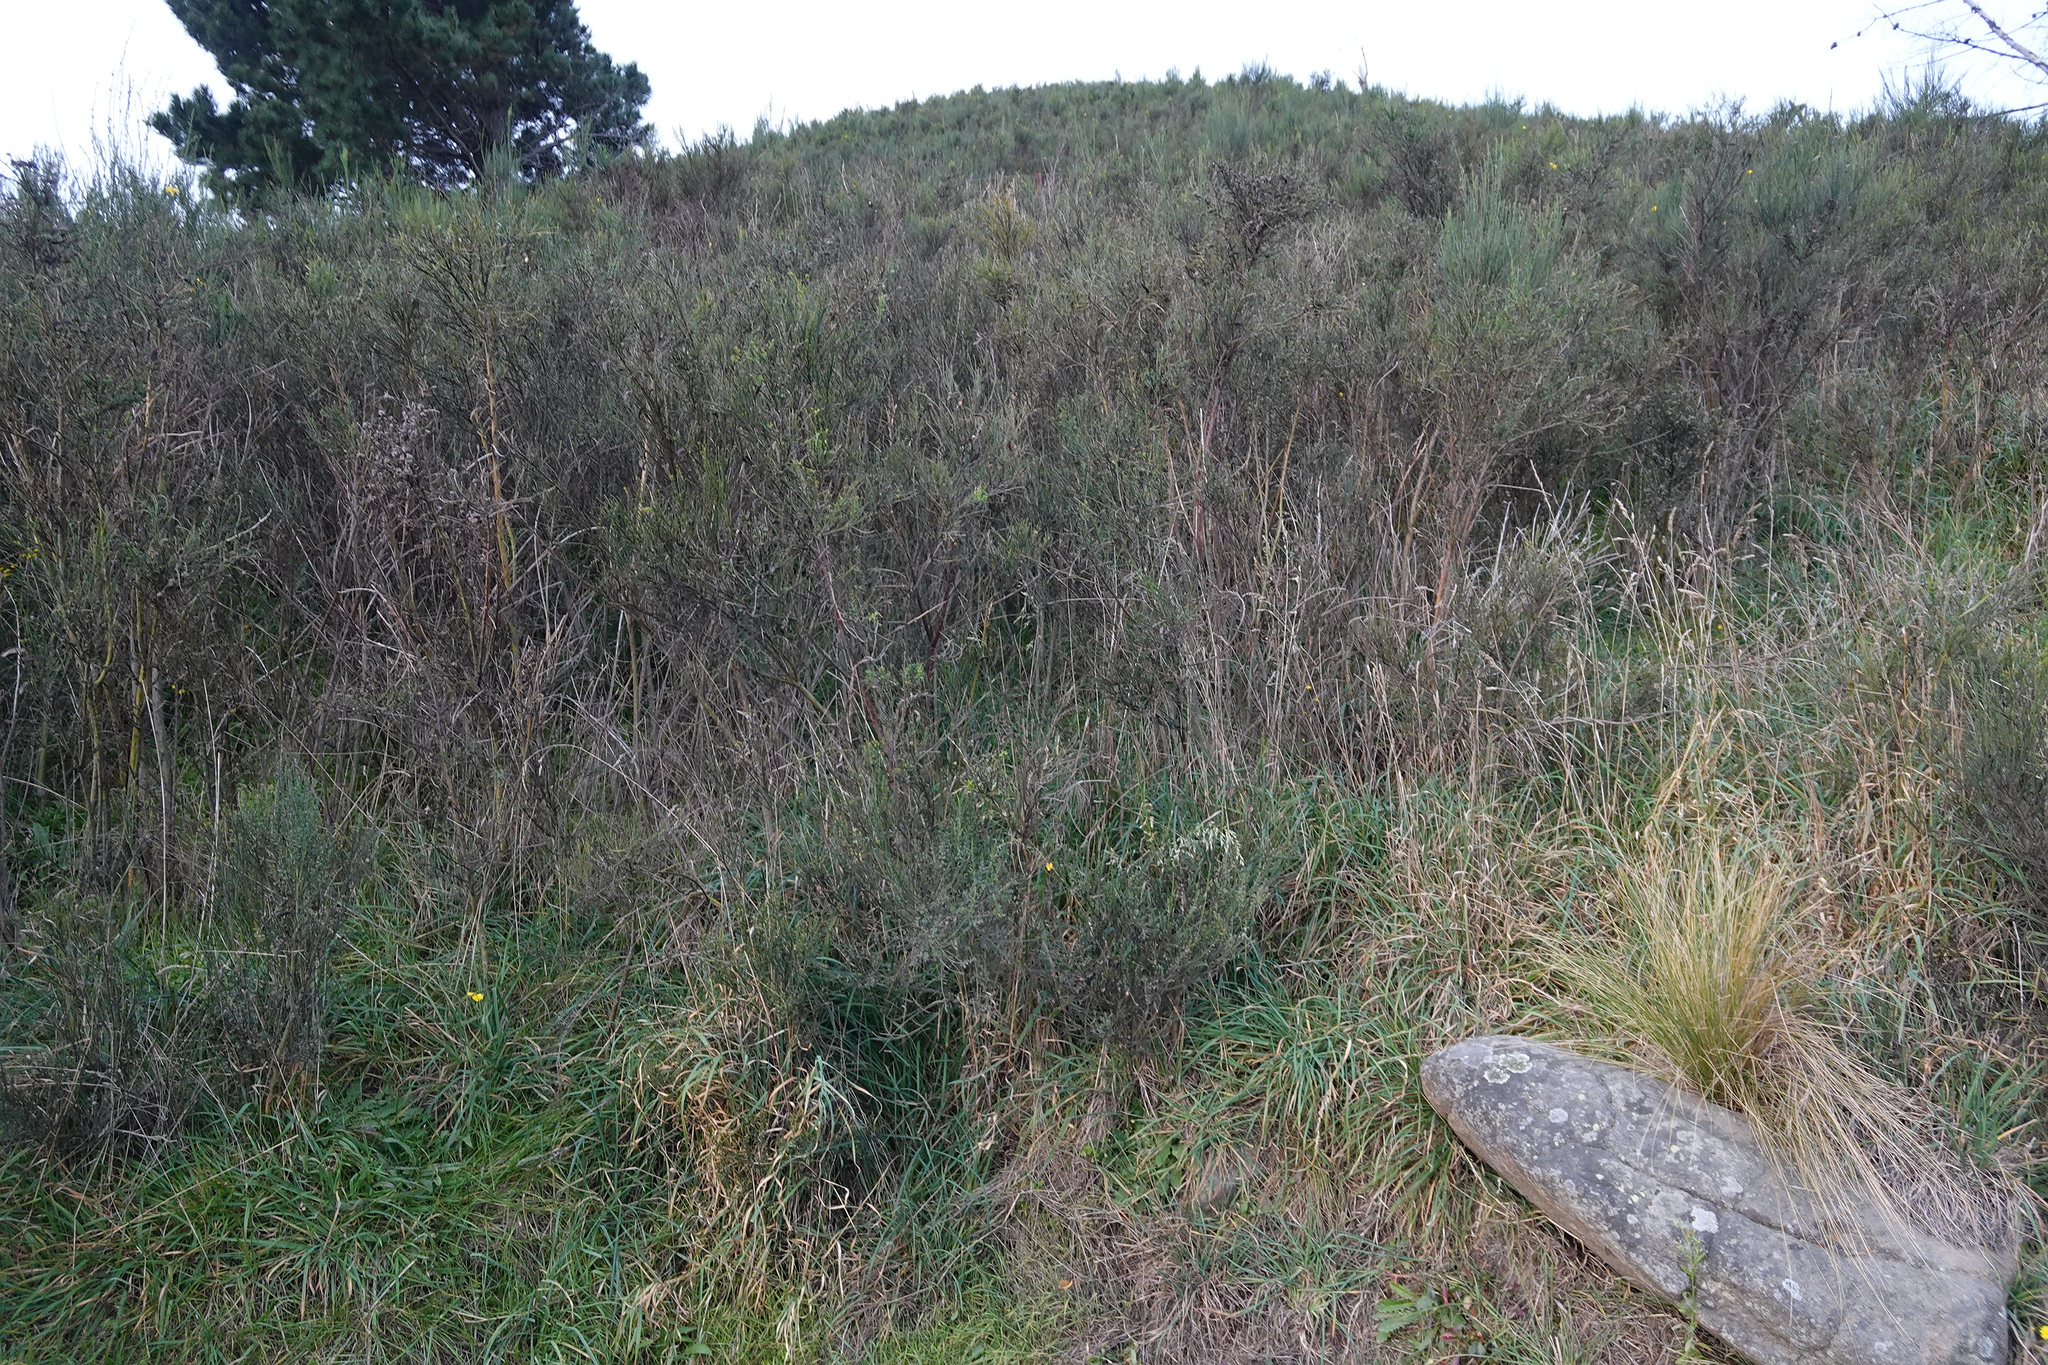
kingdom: Plantae
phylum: Tracheophyta
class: Magnoliopsida
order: Fabales
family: Fabaceae
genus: Cytisus
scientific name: Cytisus scoparius
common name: Scotch broom
